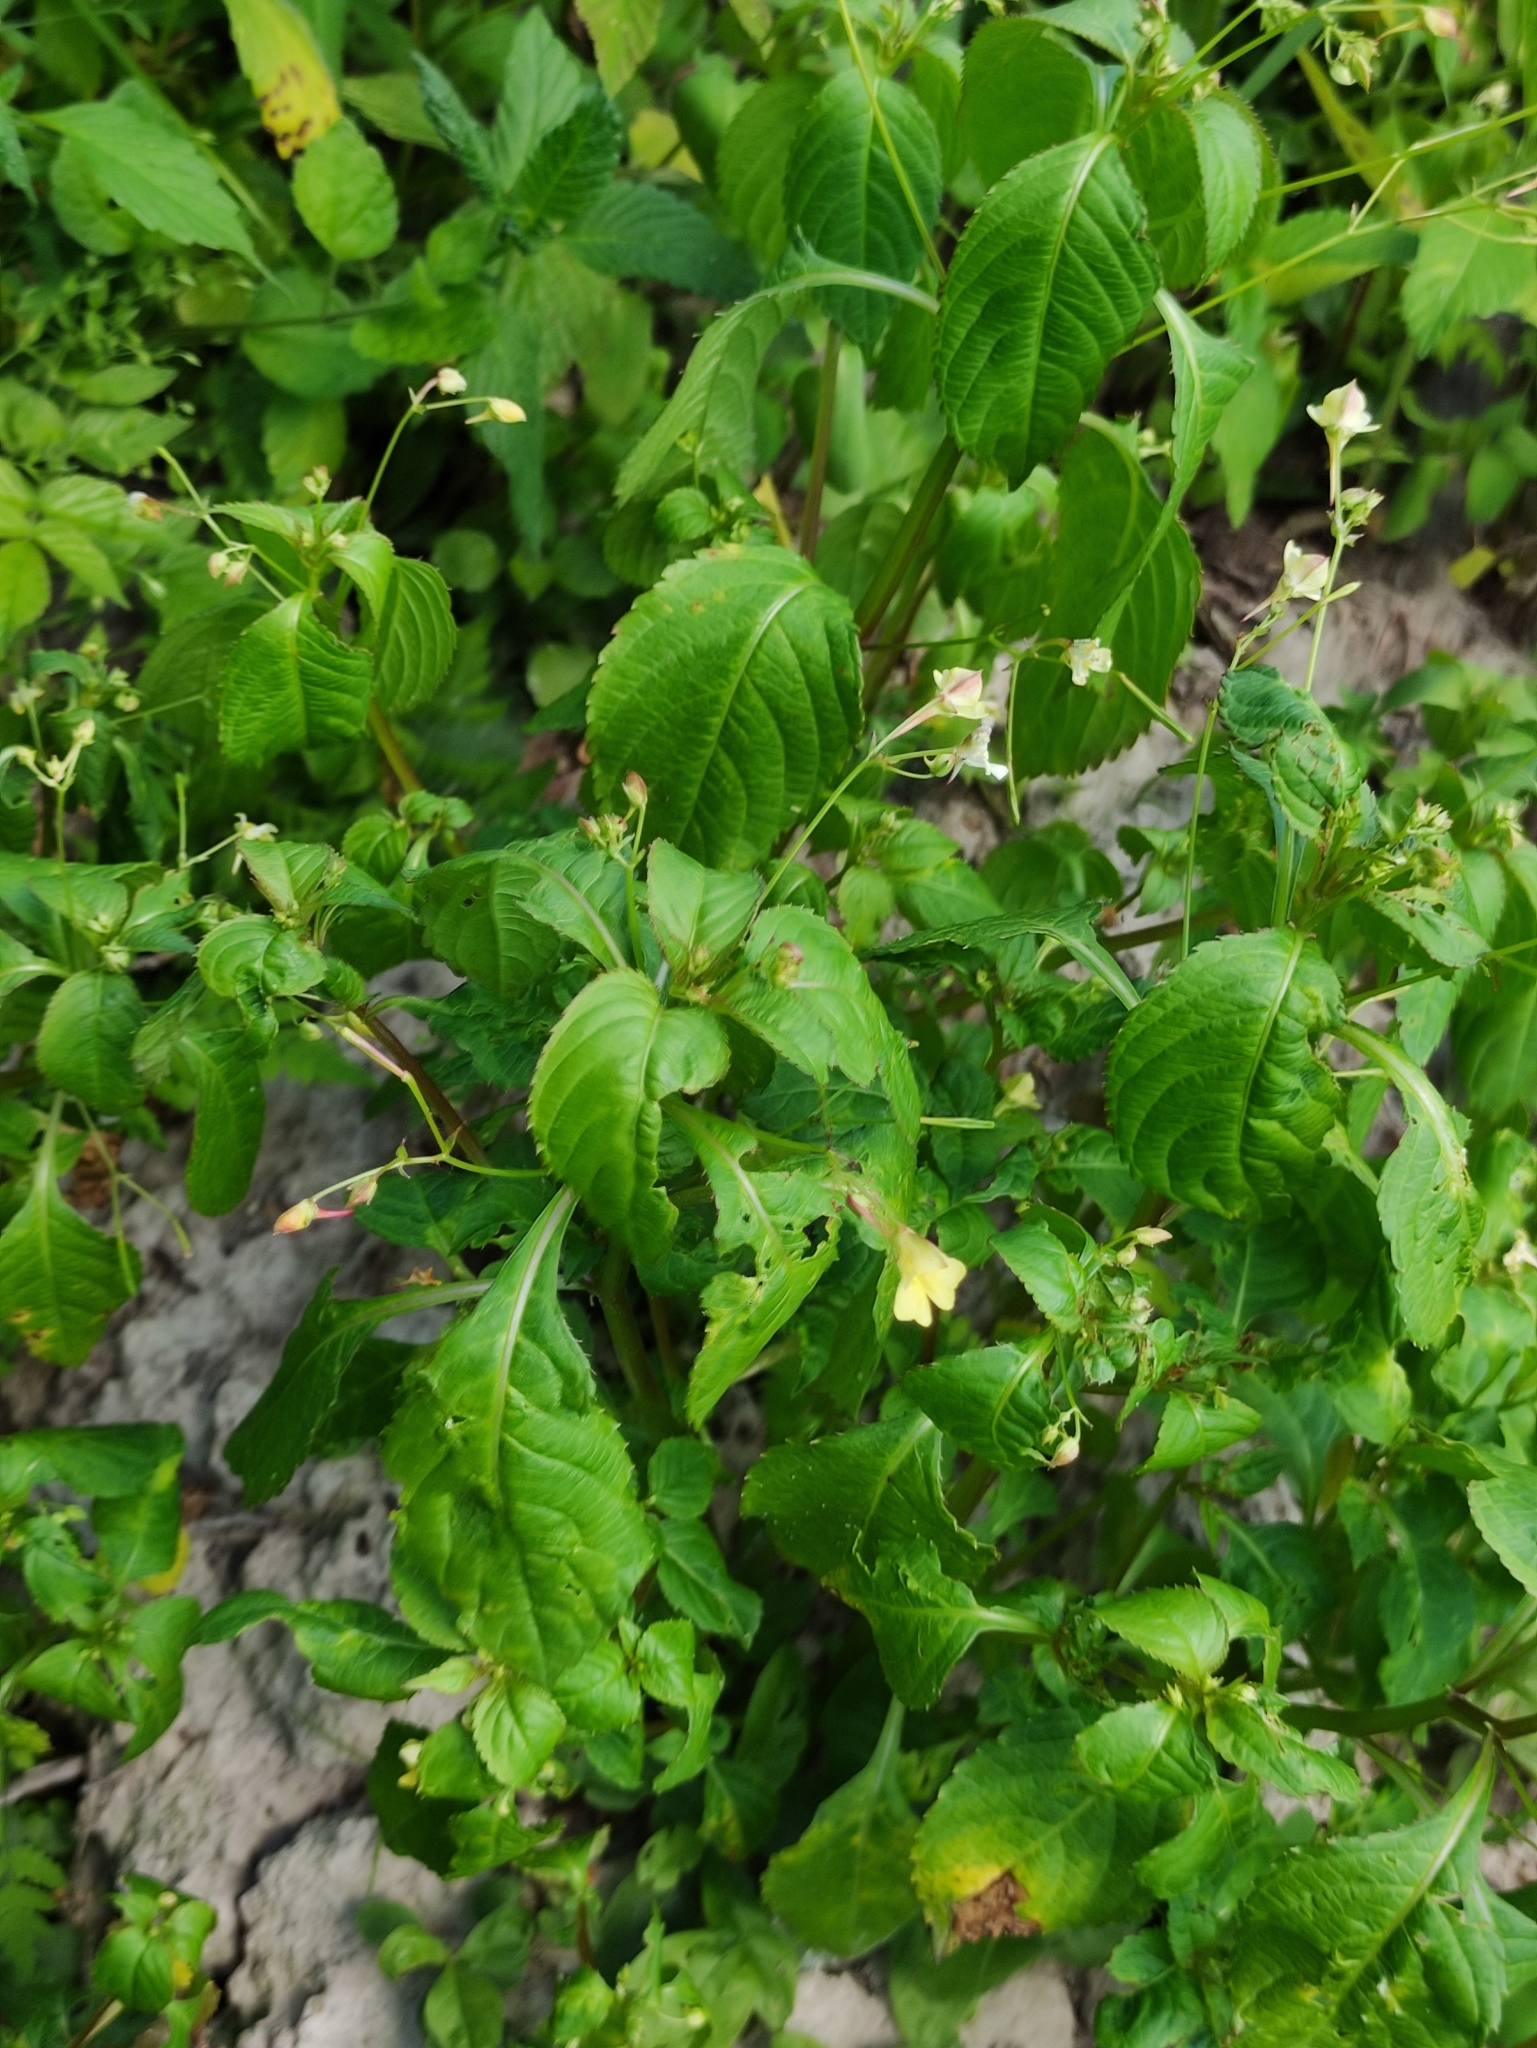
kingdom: Plantae
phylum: Tracheophyta
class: Magnoliopsida
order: Ericales
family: Balsaminaceae
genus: Impatiens
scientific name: Impatiens parviflora
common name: Small balsam
